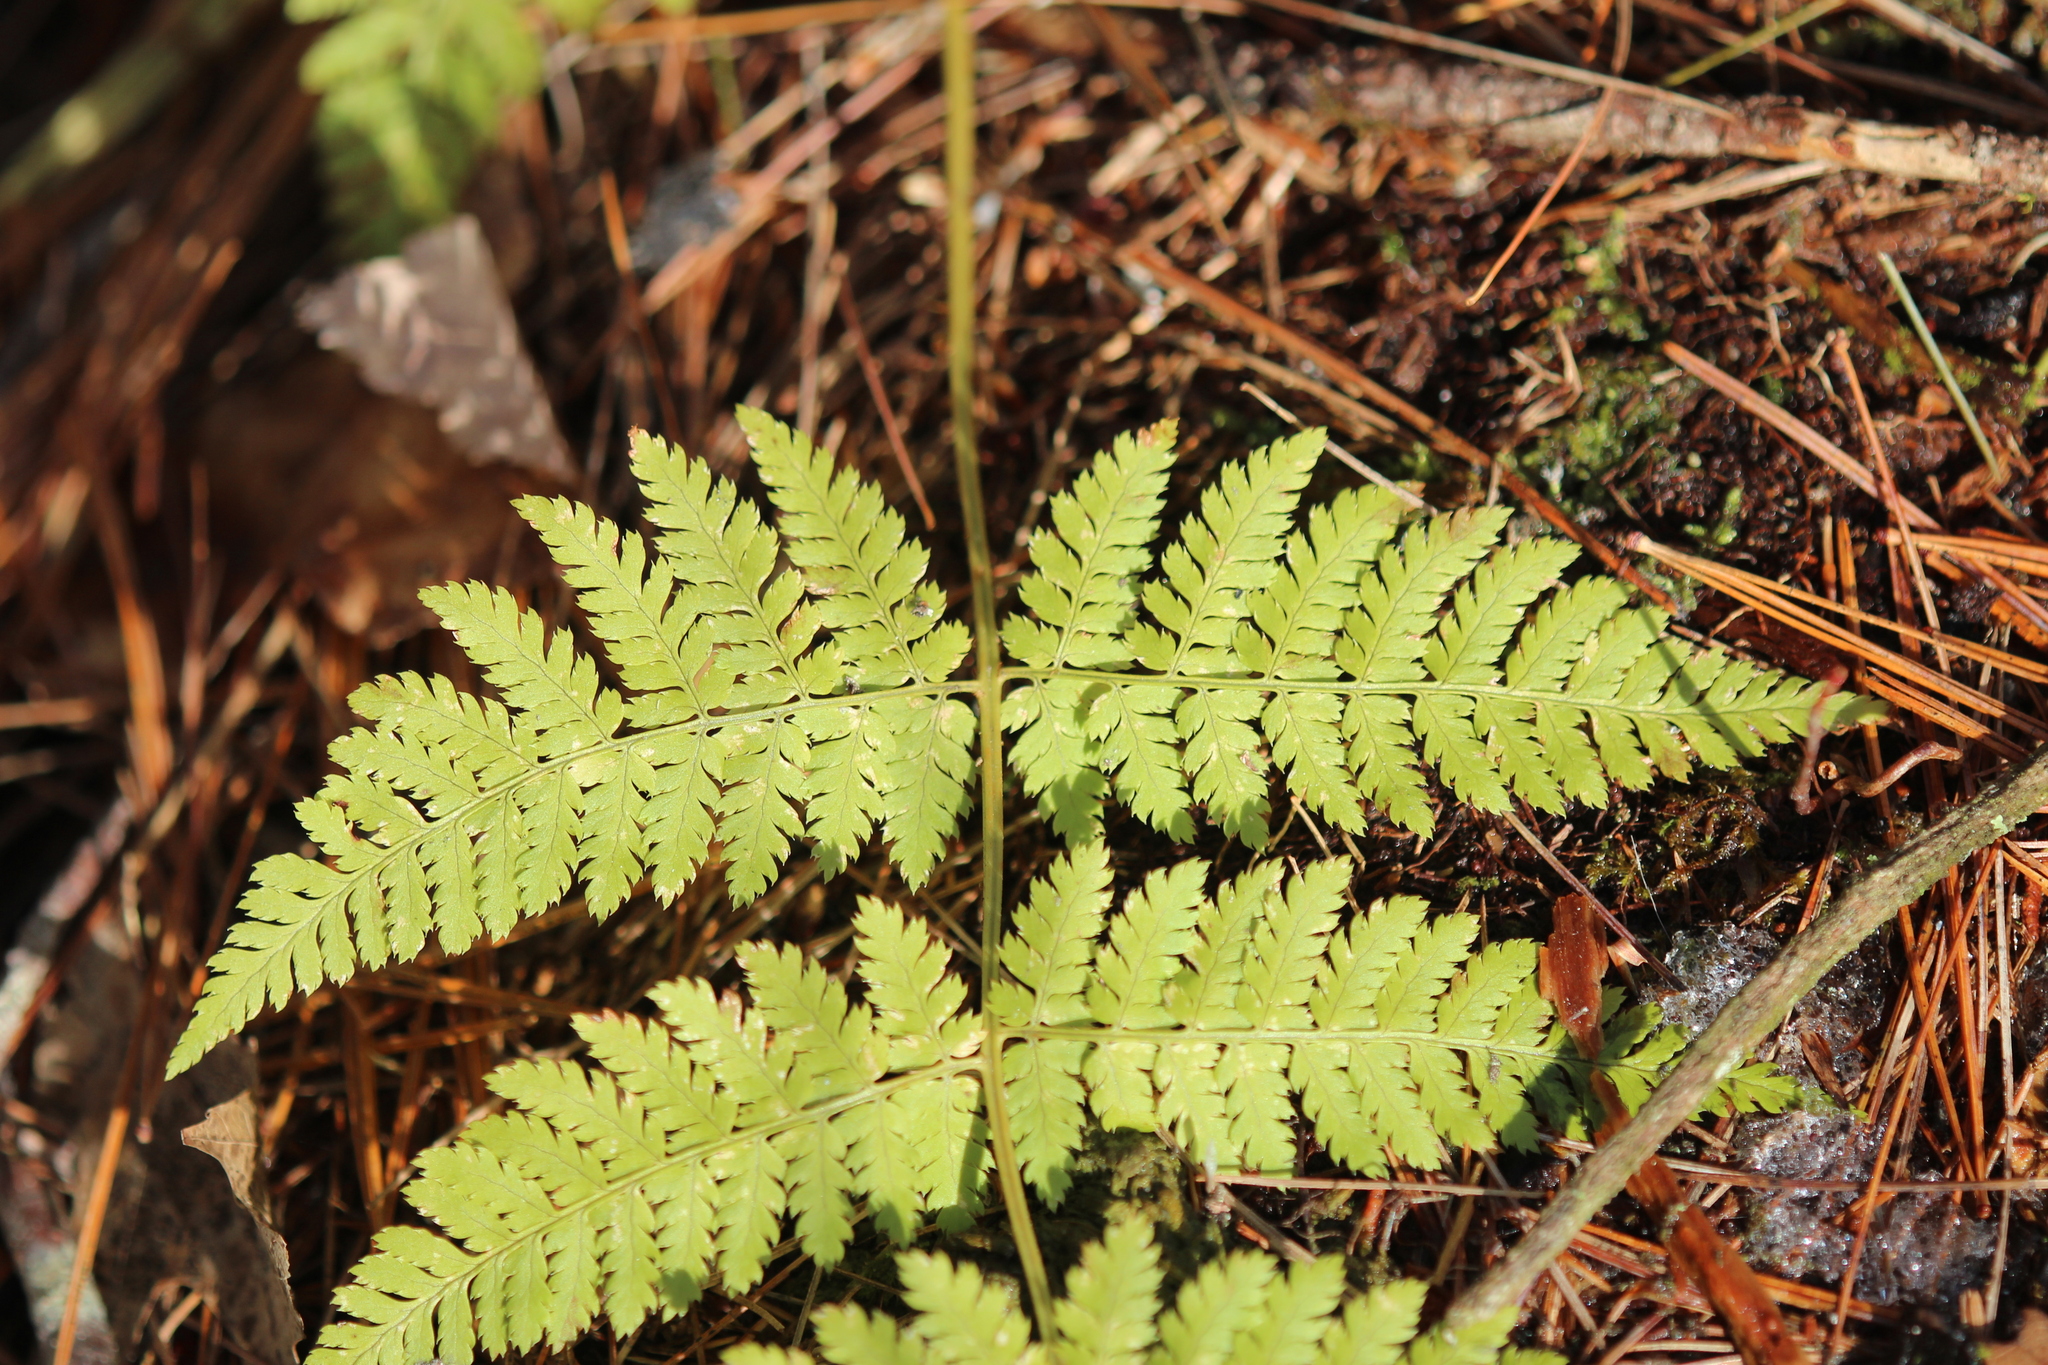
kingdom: Plantae
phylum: Tracheophyta
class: Polypodiopsida
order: Polypodiales
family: Dryopteridaceae
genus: Dryopteris
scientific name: Dryopteris intermedia
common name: Evergreen wood fern
